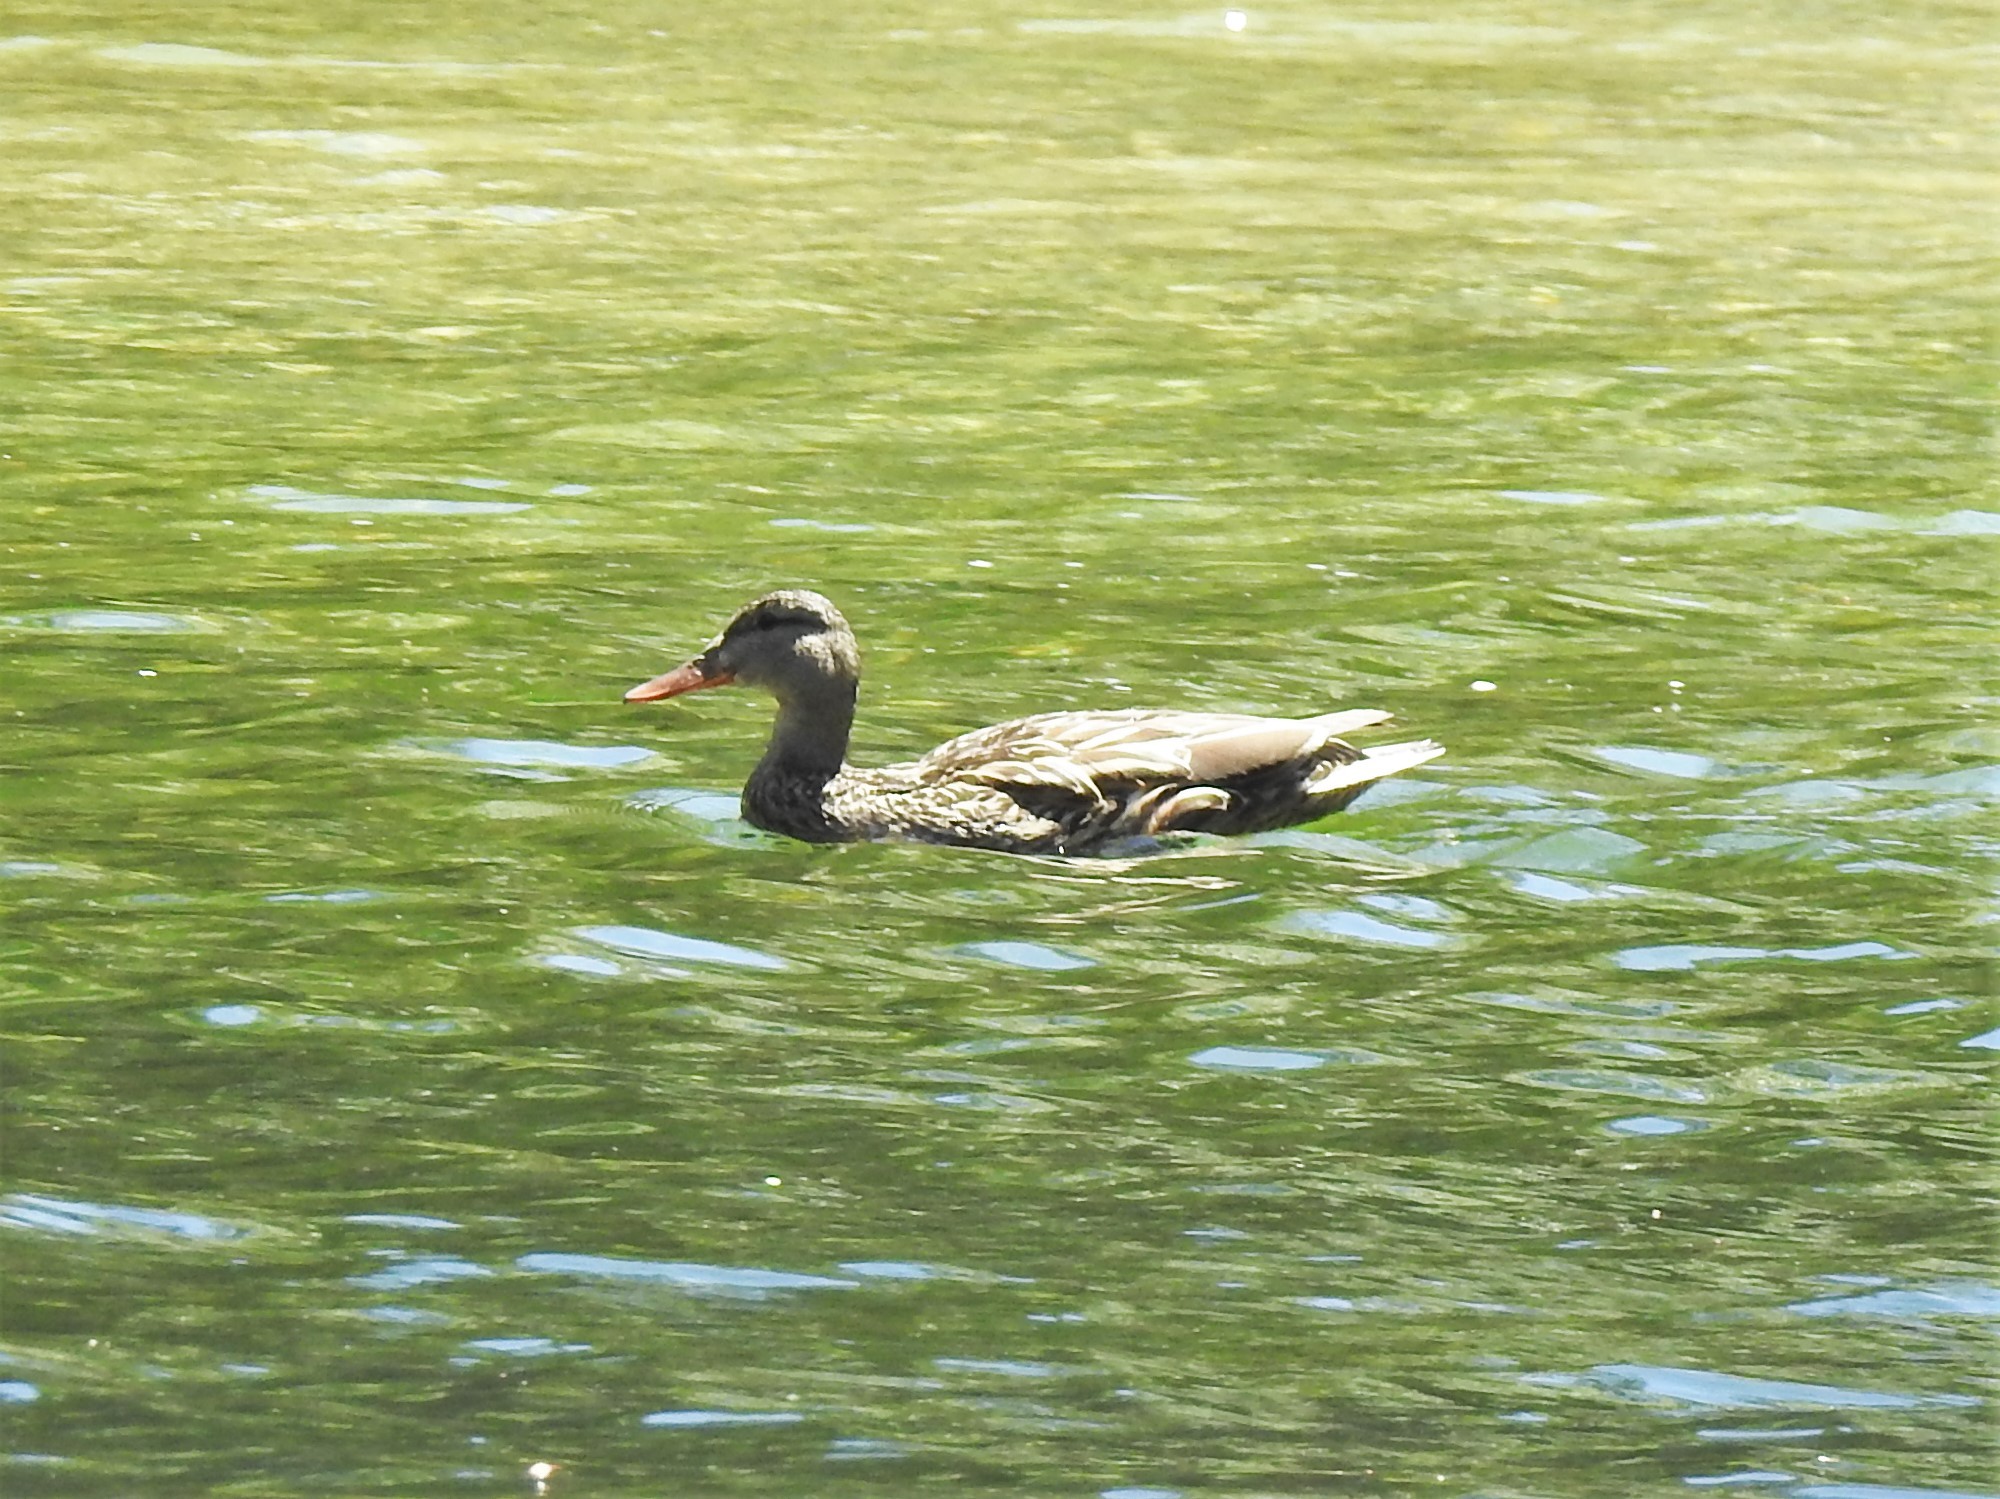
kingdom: Animalia
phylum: Chordata
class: Aves
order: Anseriformes
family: Anatidae
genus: Anas
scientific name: Anas platyrhynchos
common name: Mallard
